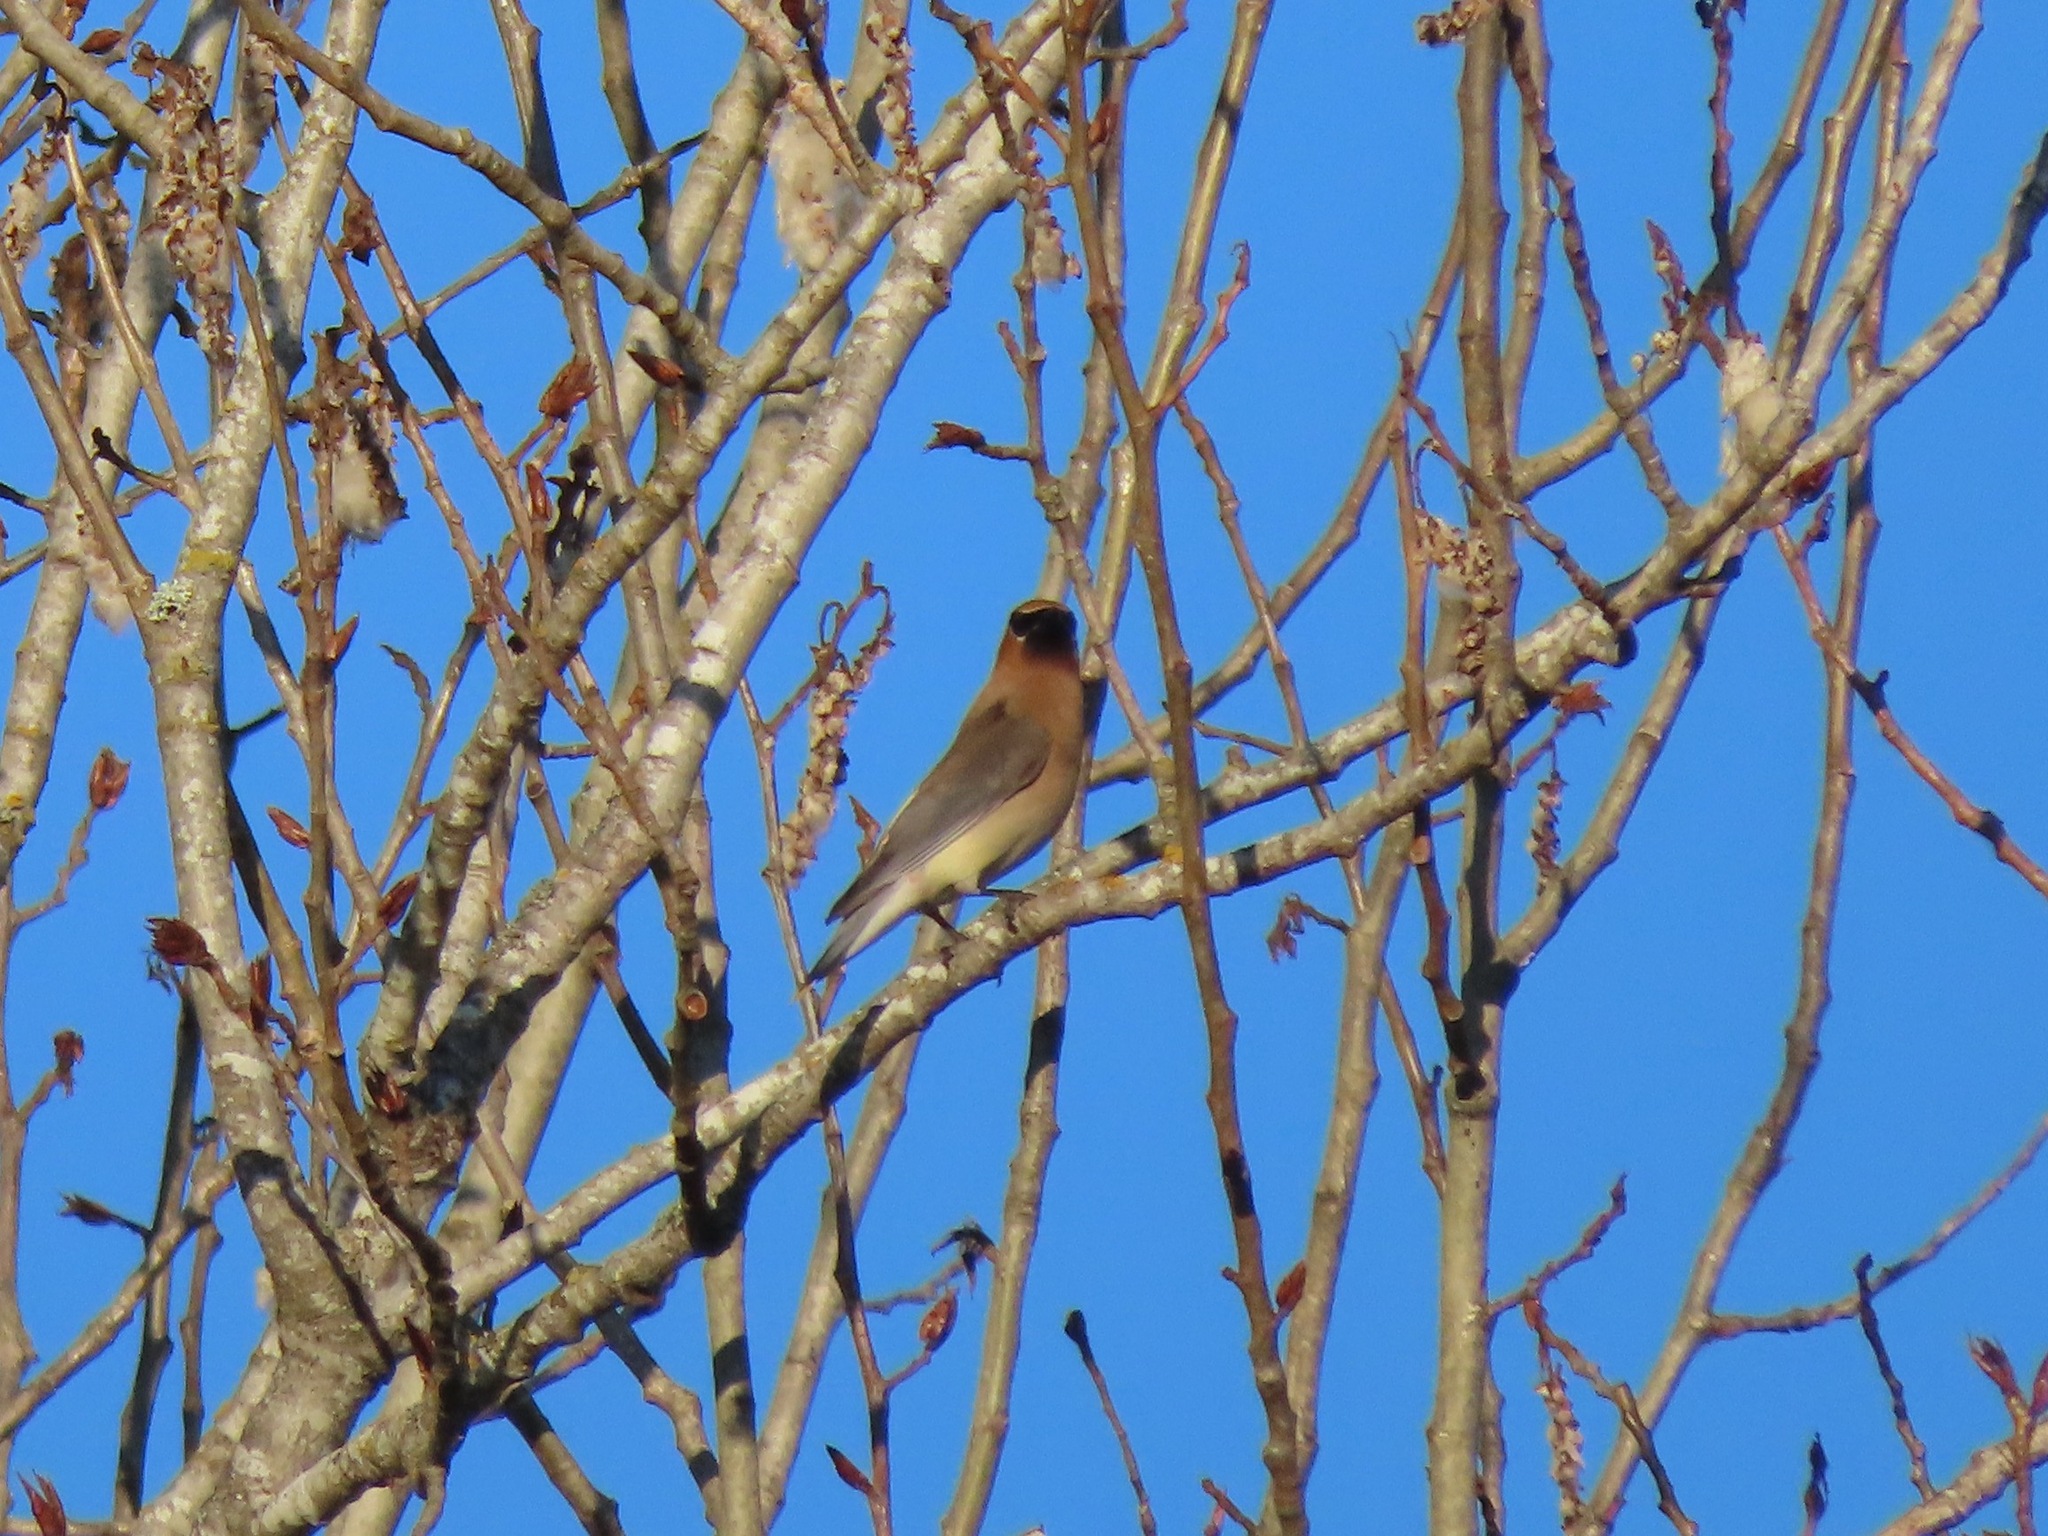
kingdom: Animalia
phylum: Chordata
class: Aves
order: Passeriformes
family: Bombycillidae
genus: Bombycilla
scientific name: Bombycilla cedrorum
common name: Cedar waxwing
